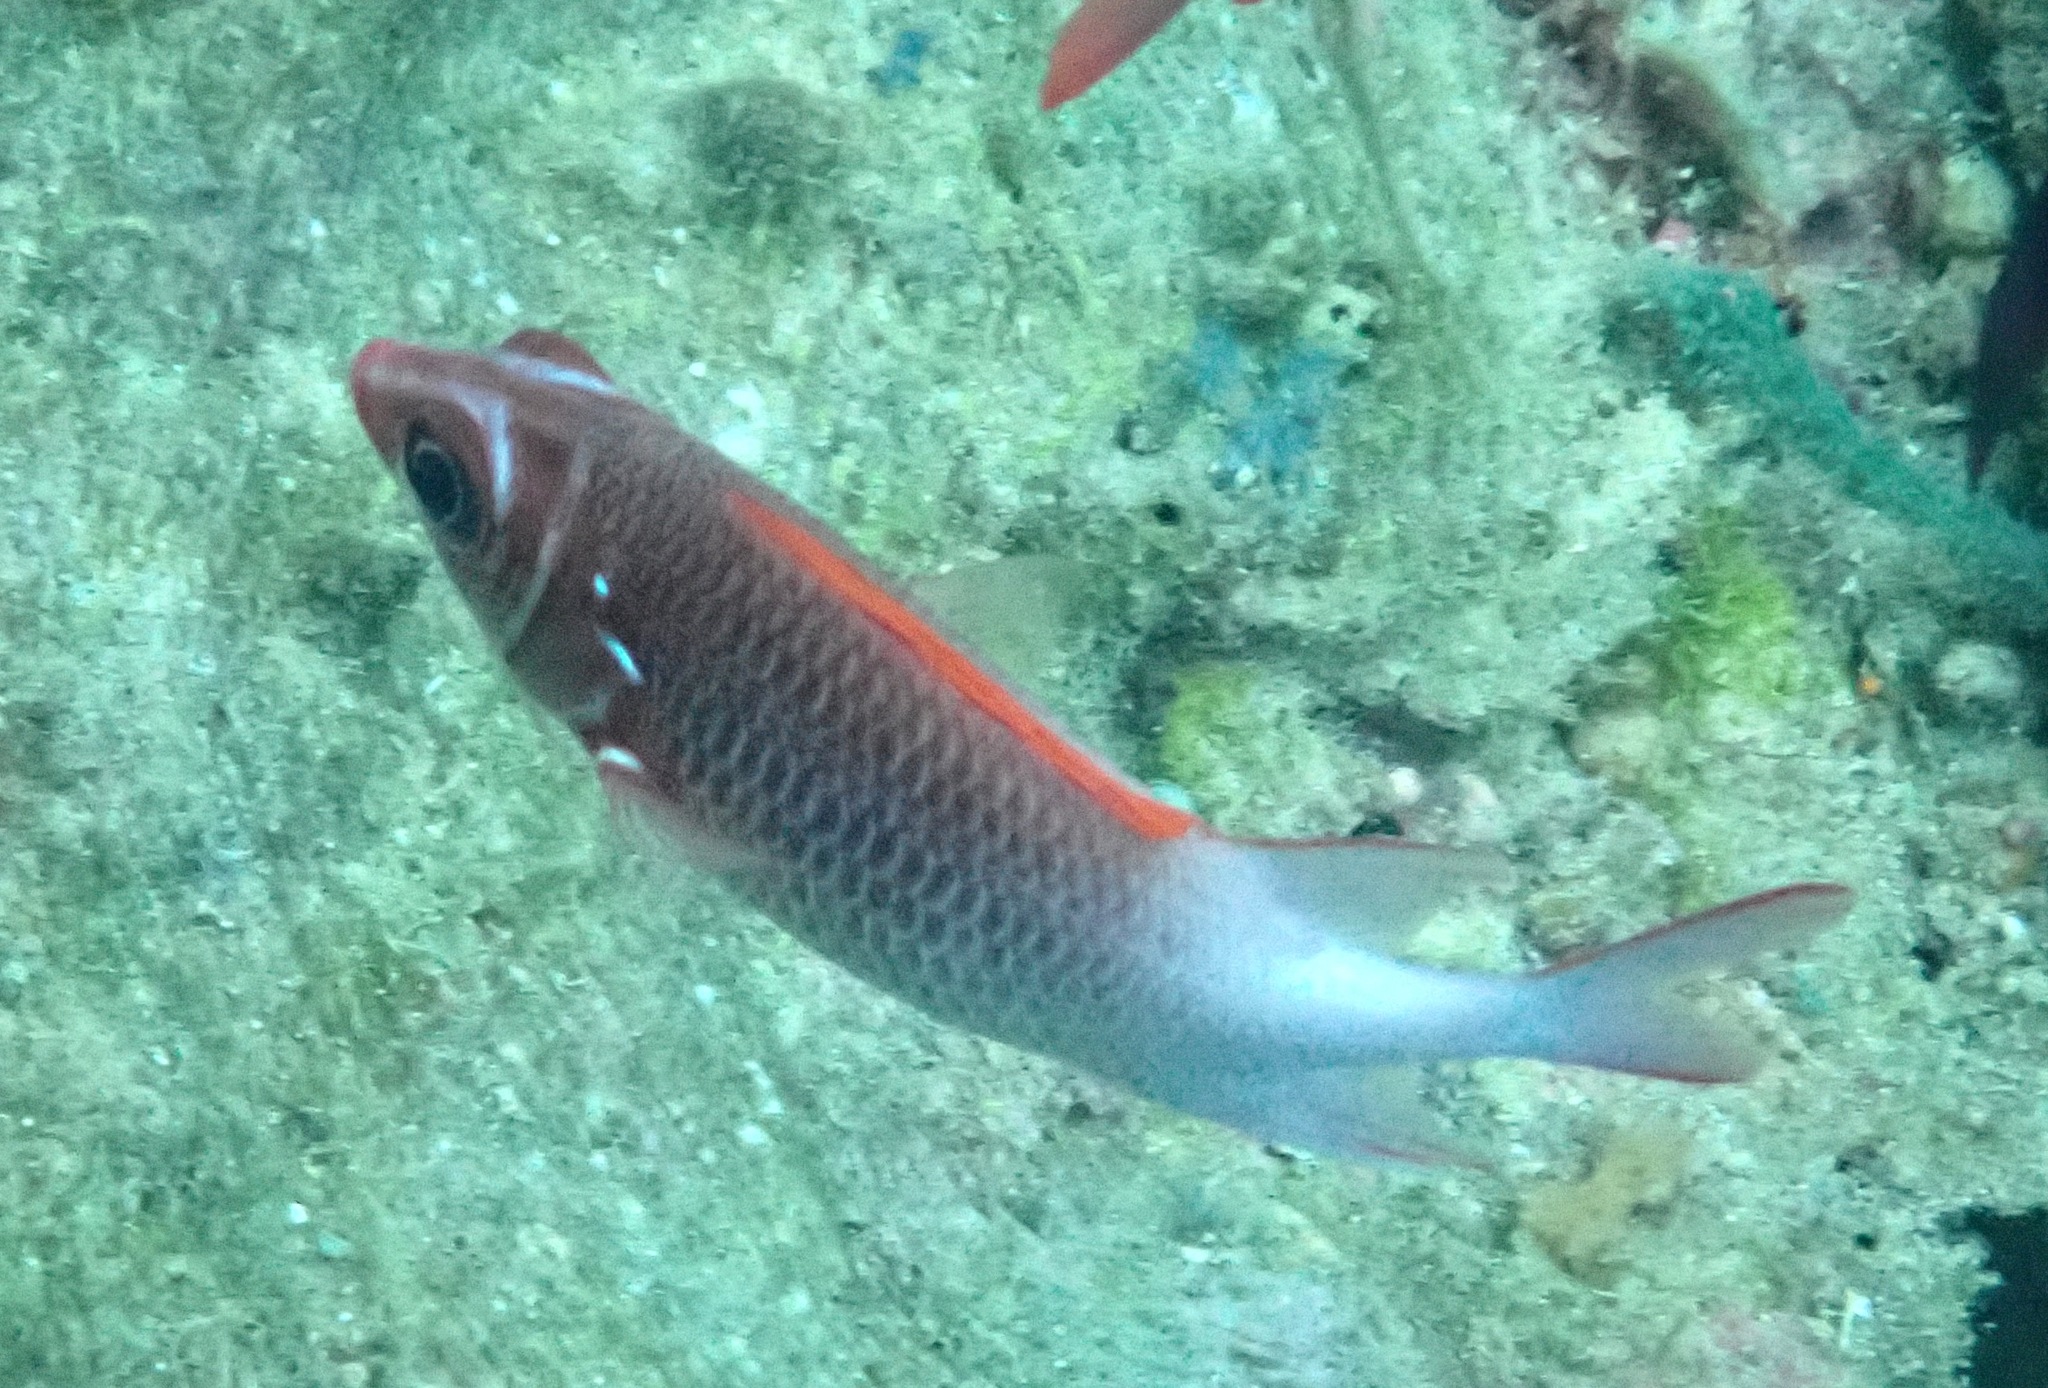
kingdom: Animalia
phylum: Chordata
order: Beryciformes
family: Holocentridae
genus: Sargocentron
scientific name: Sargocentron caudimaculatum
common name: Fanfin soldier
